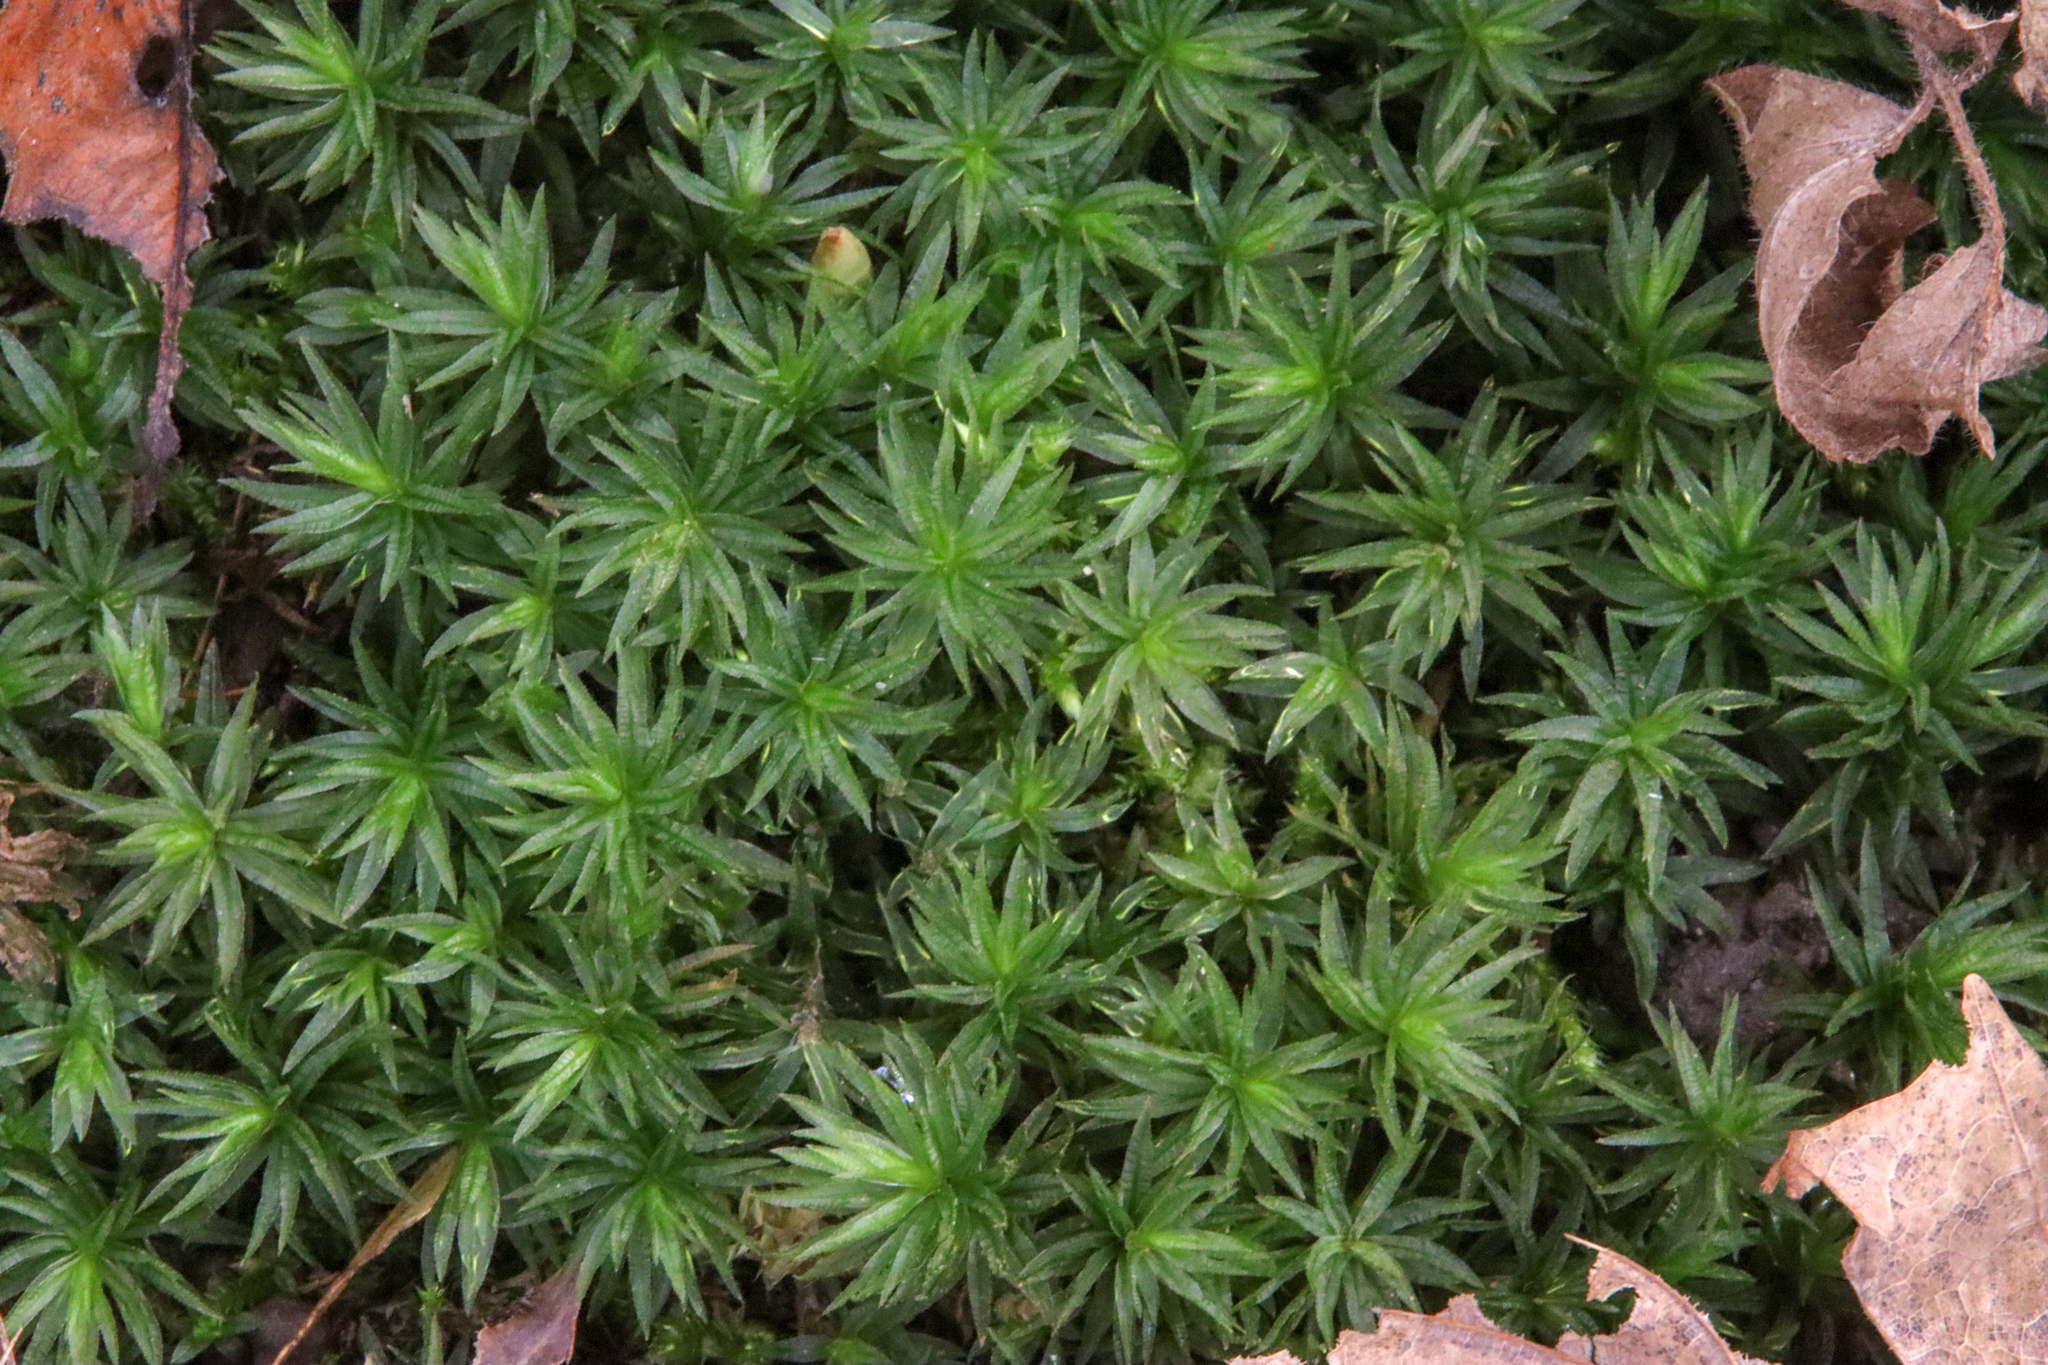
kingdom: Plantae
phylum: Bryophyta
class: Polytrichopsida
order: Polytrichales
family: Polytrichaceae
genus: Atrichum
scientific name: Atrichum undulatum
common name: Common smoothcap
